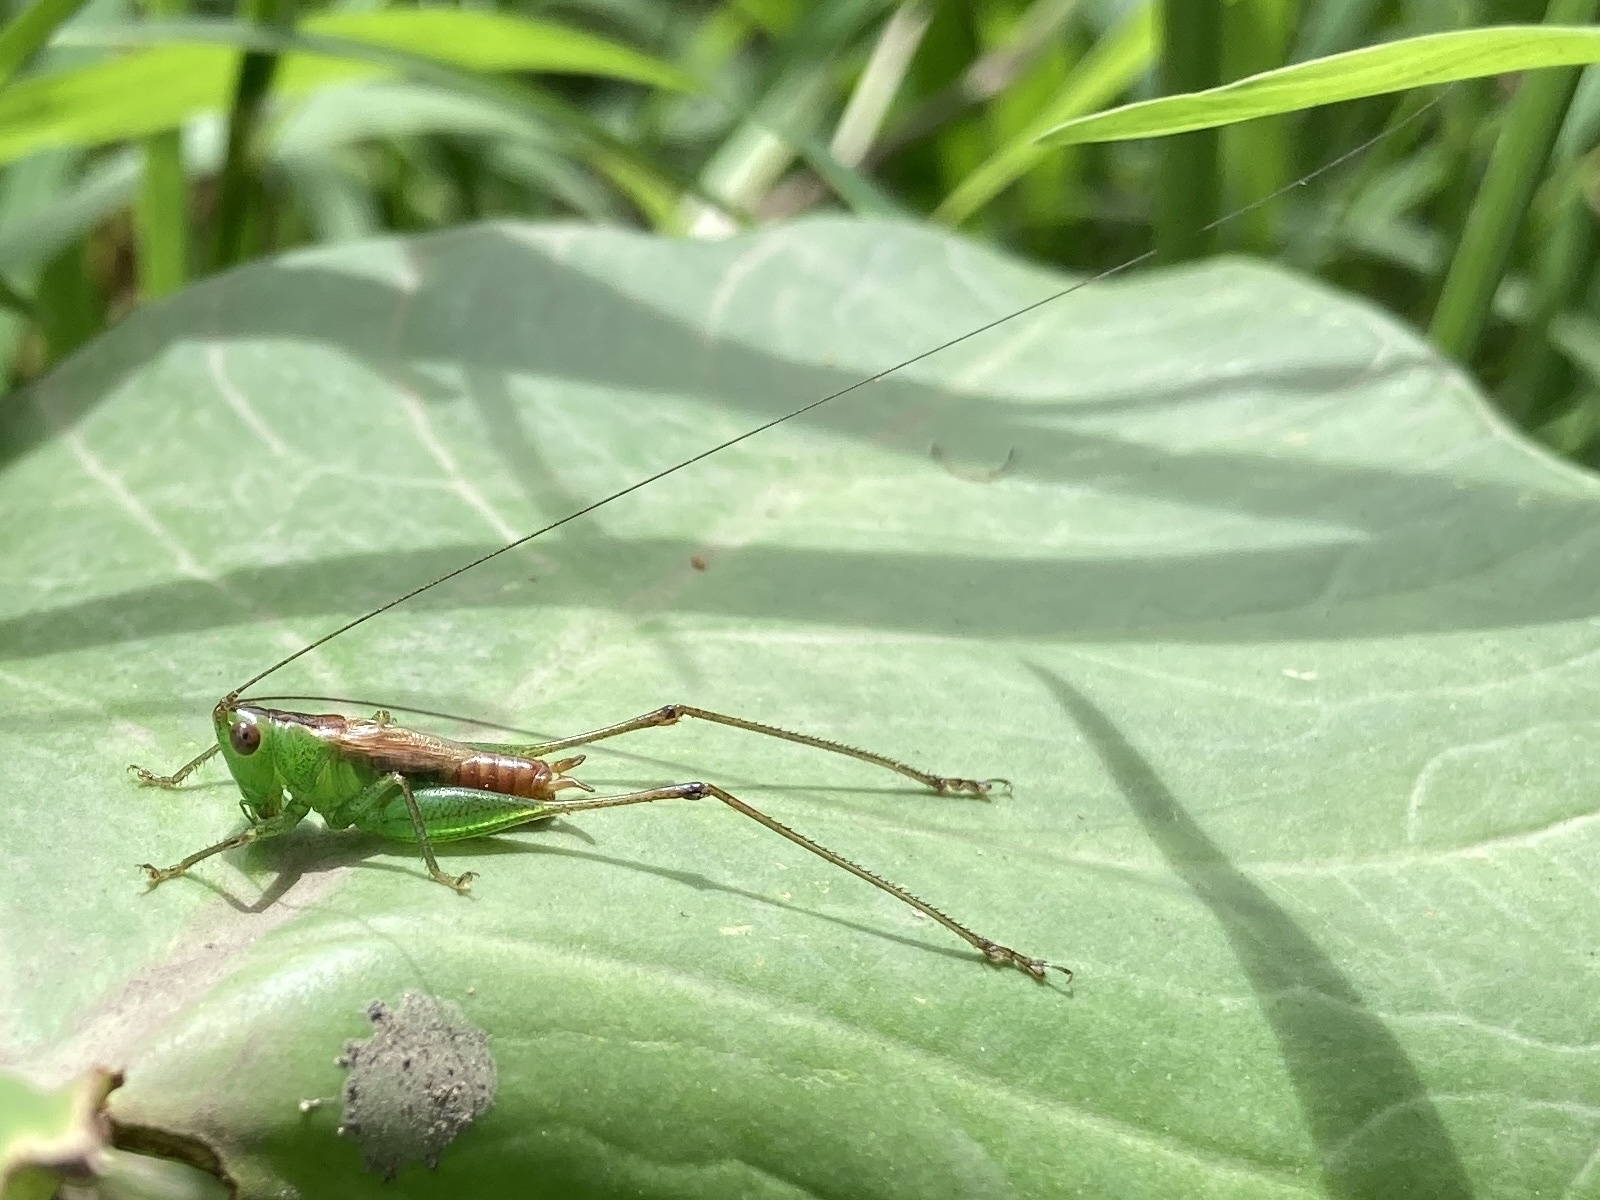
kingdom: Animalia
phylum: Arthropoda
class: Insecta
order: Orthoptera
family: Tettigoniidae
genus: Conocephalus
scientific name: Conocephalus saltator
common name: Katydid
